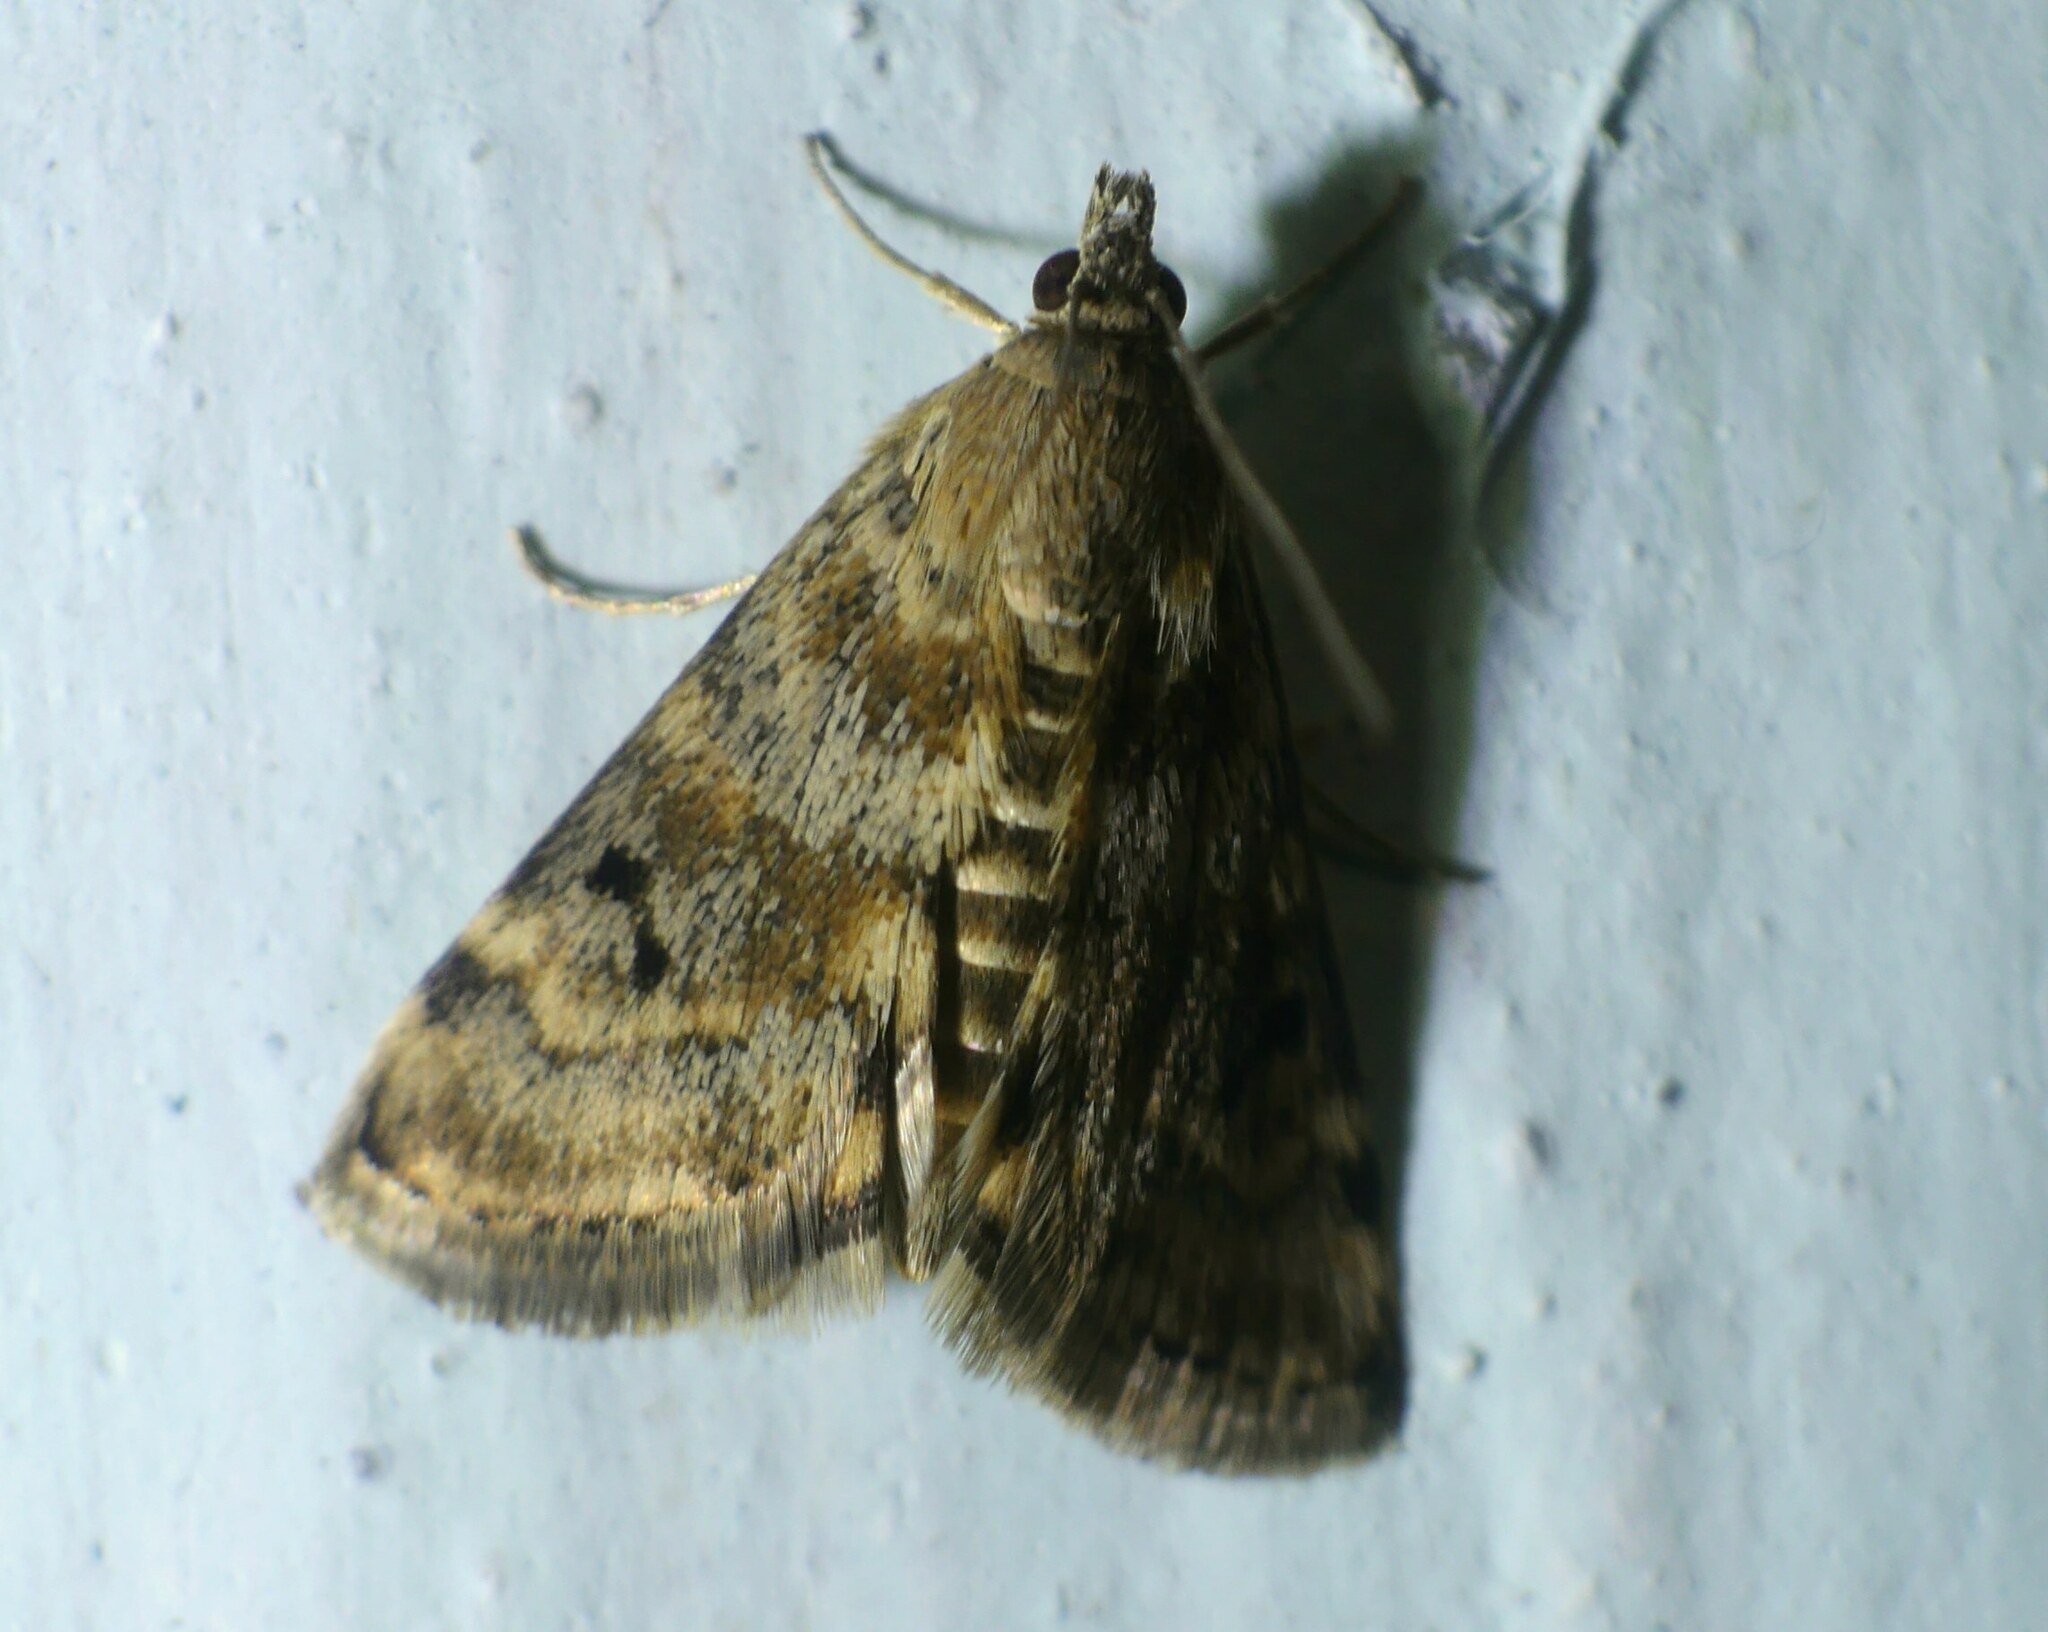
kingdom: Animalia
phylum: Arthropoda
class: Insecta
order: Lepidoptera
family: Crambidae
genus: Noctuelia
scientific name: Noctuelia Aporodes floralis
